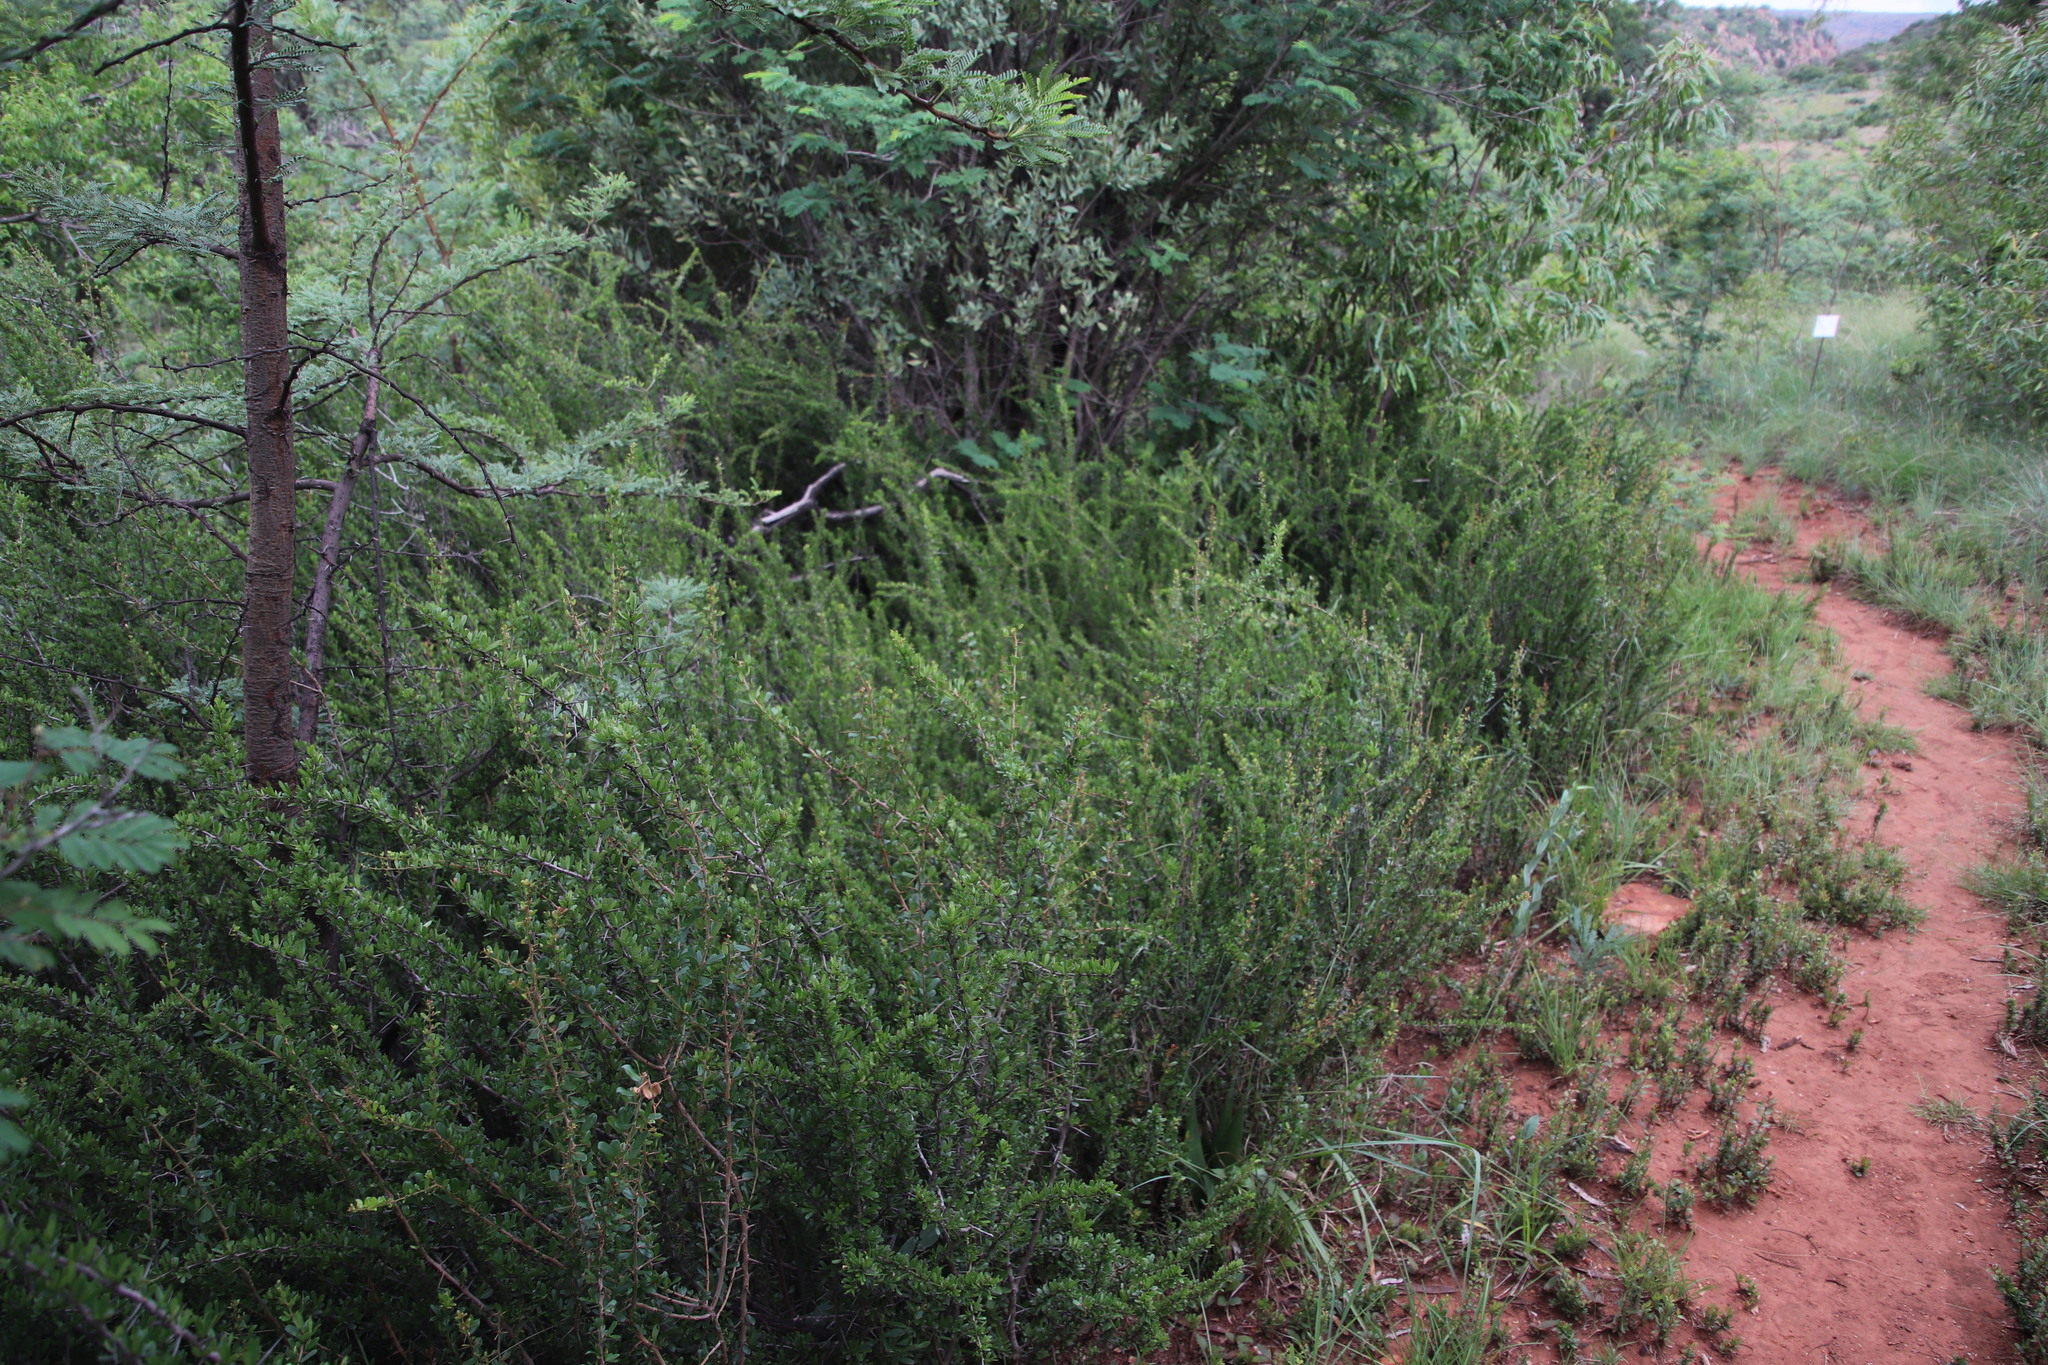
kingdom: Plantae
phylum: Tracheophyta
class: Magnoliopsida
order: Celastrales
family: Celastraceae
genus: Gymnosporia
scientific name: Gymnosporia polyacantha
